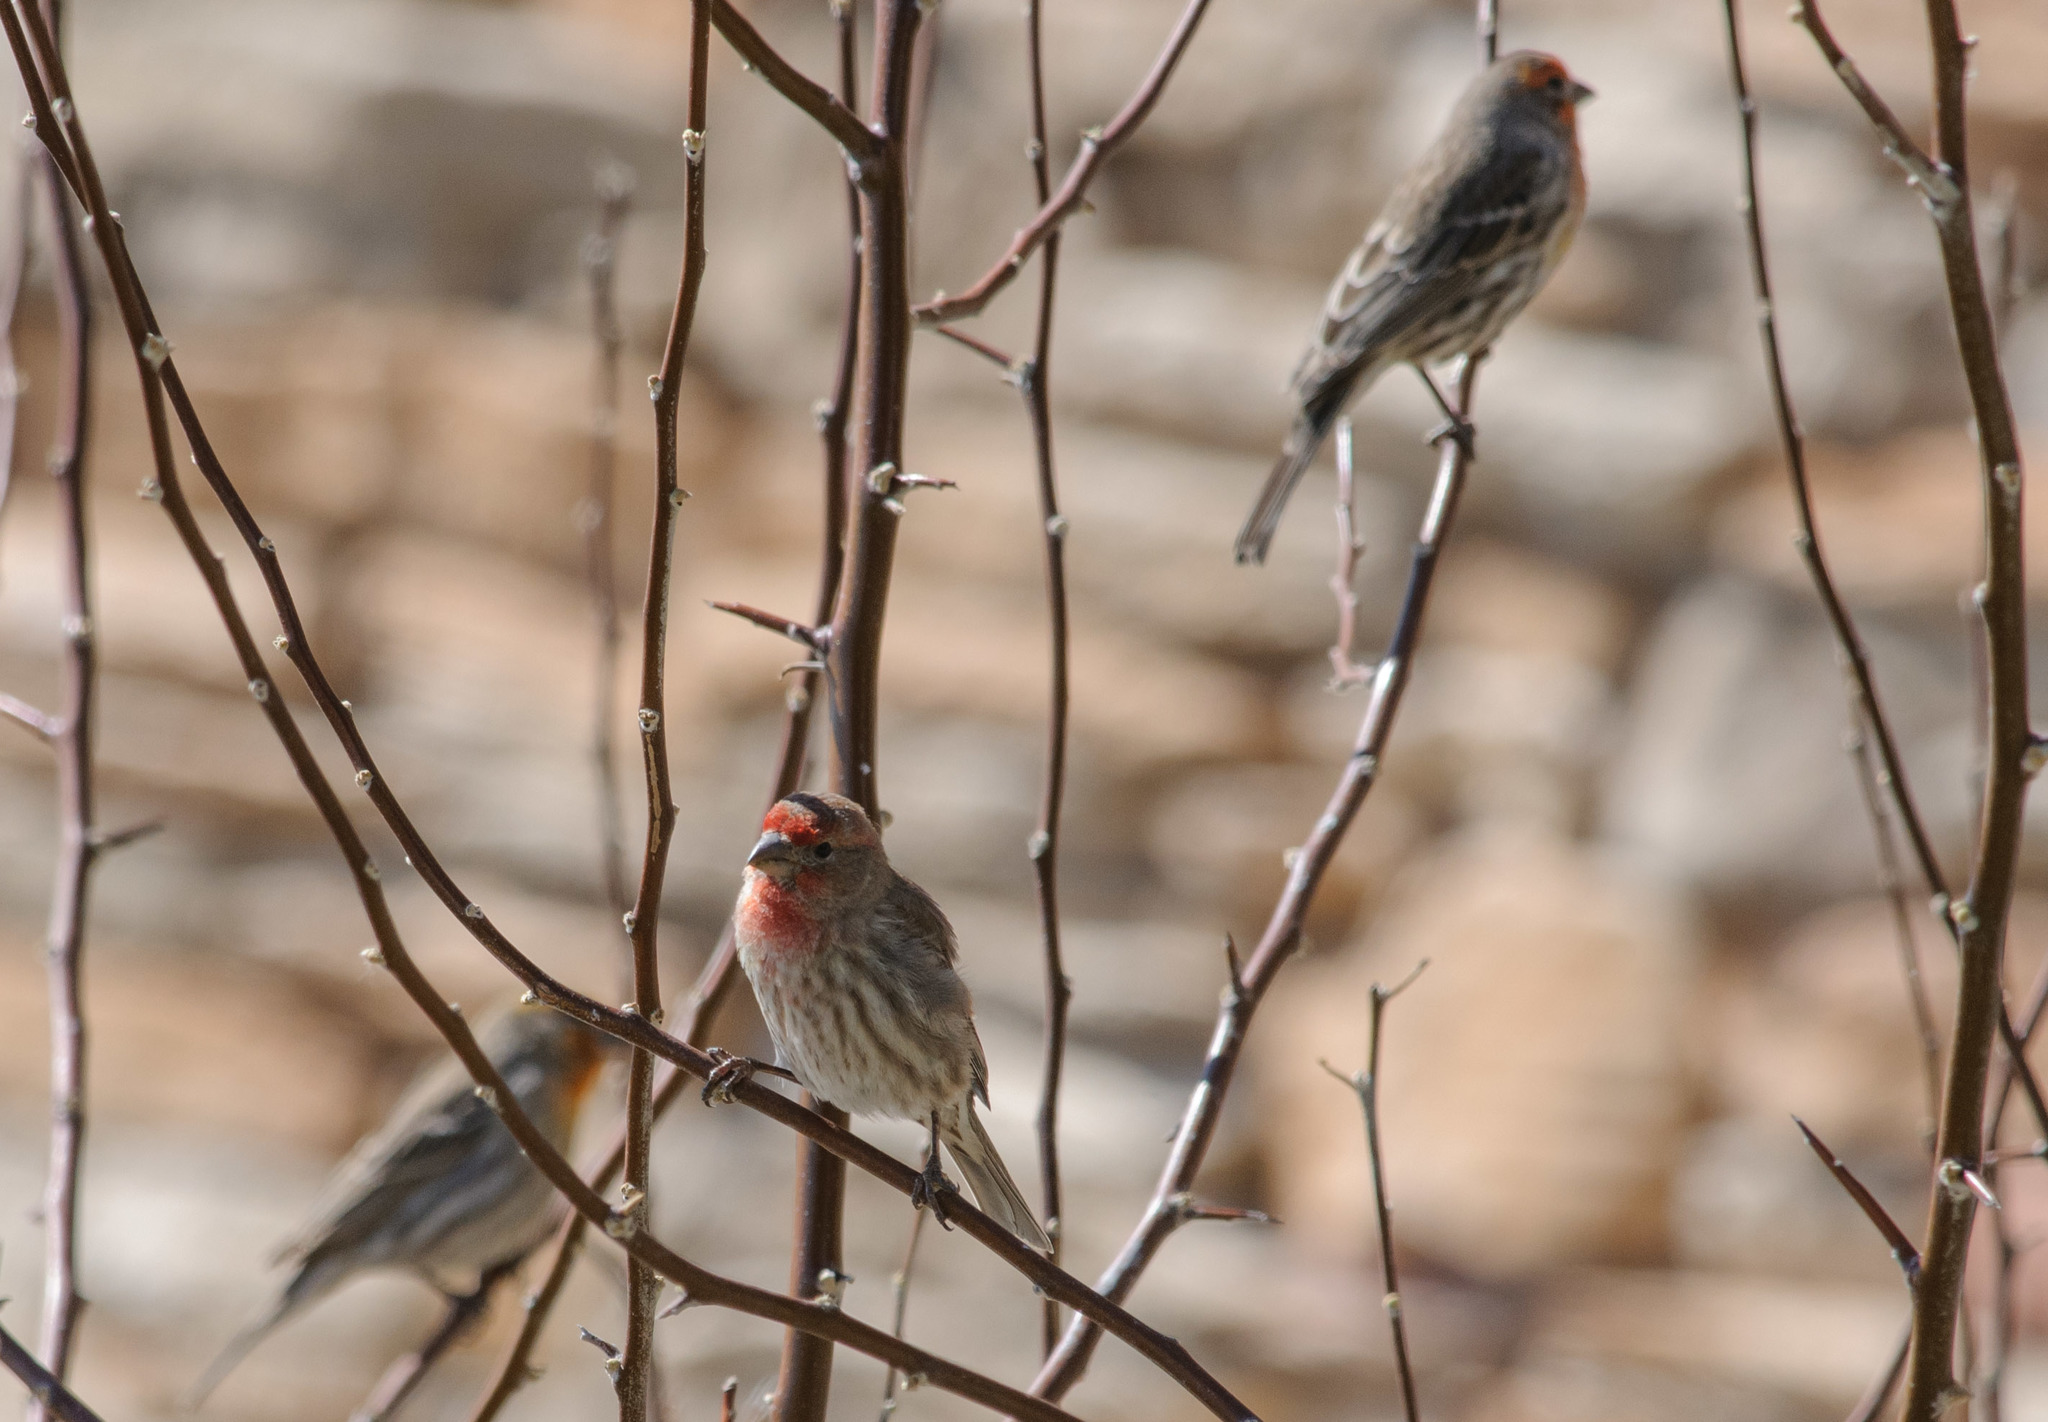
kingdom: Animalia
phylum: Chordata
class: Aves
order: Passeriformes
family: Fringillidae
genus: Haemorhous
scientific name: Haemorhous mexicanus
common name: House finch
